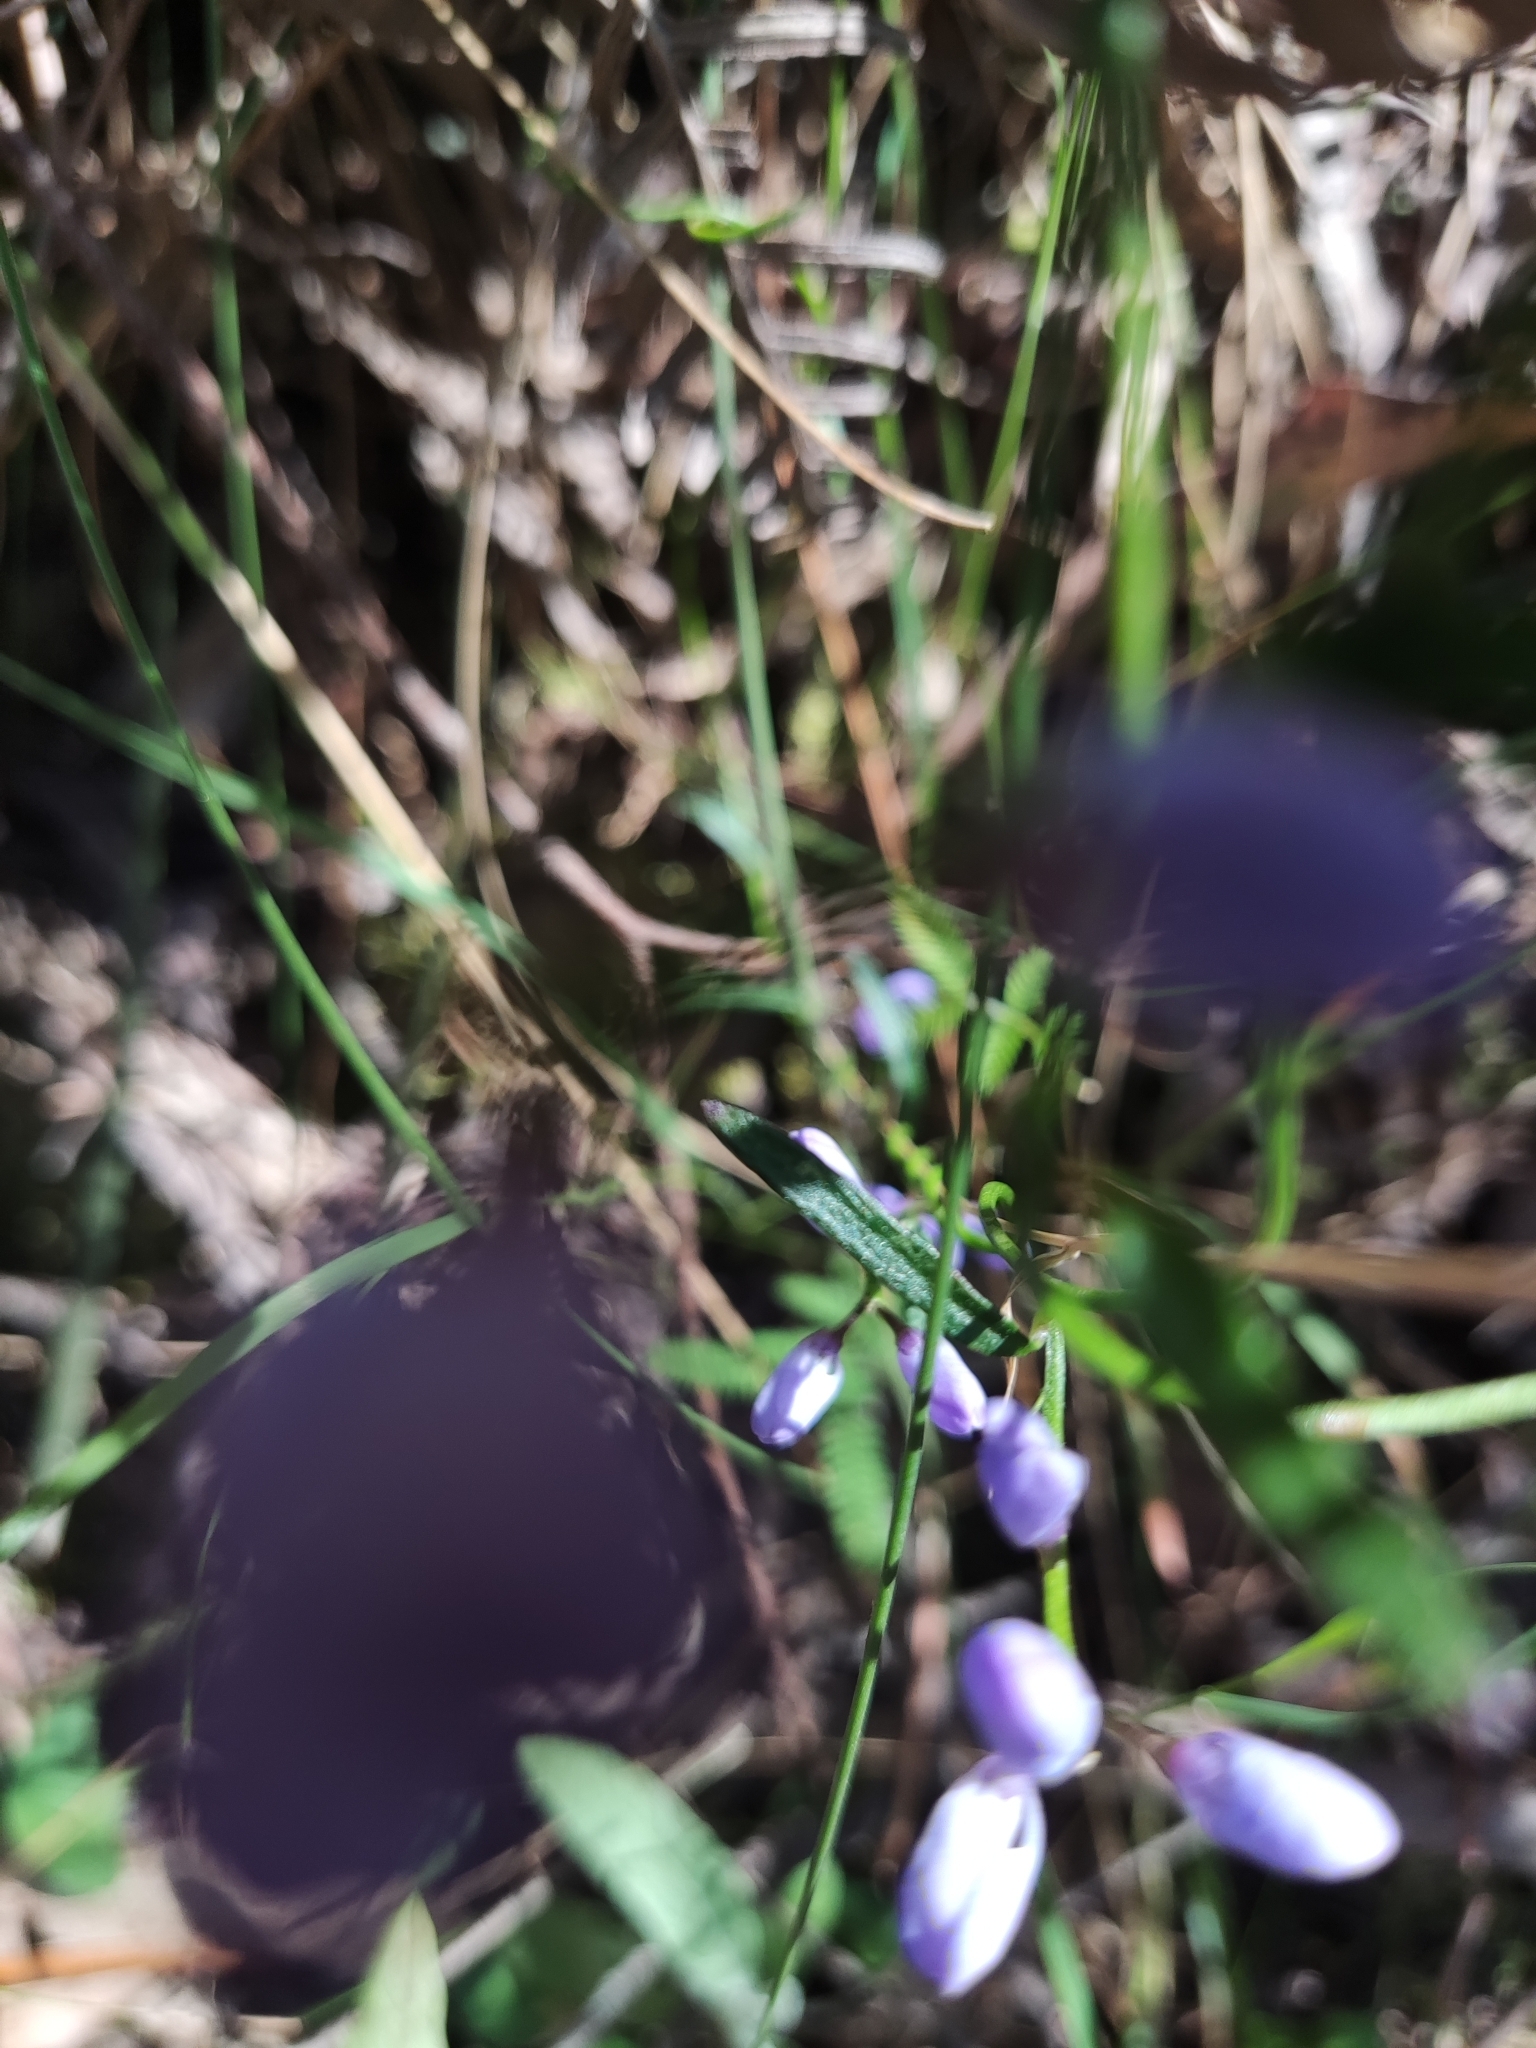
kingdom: Plantae
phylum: Tracheophyta
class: Magnoliopsida
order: Fabales
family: Polygalaceae
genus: Comesperma
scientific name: Comesperma volubile
